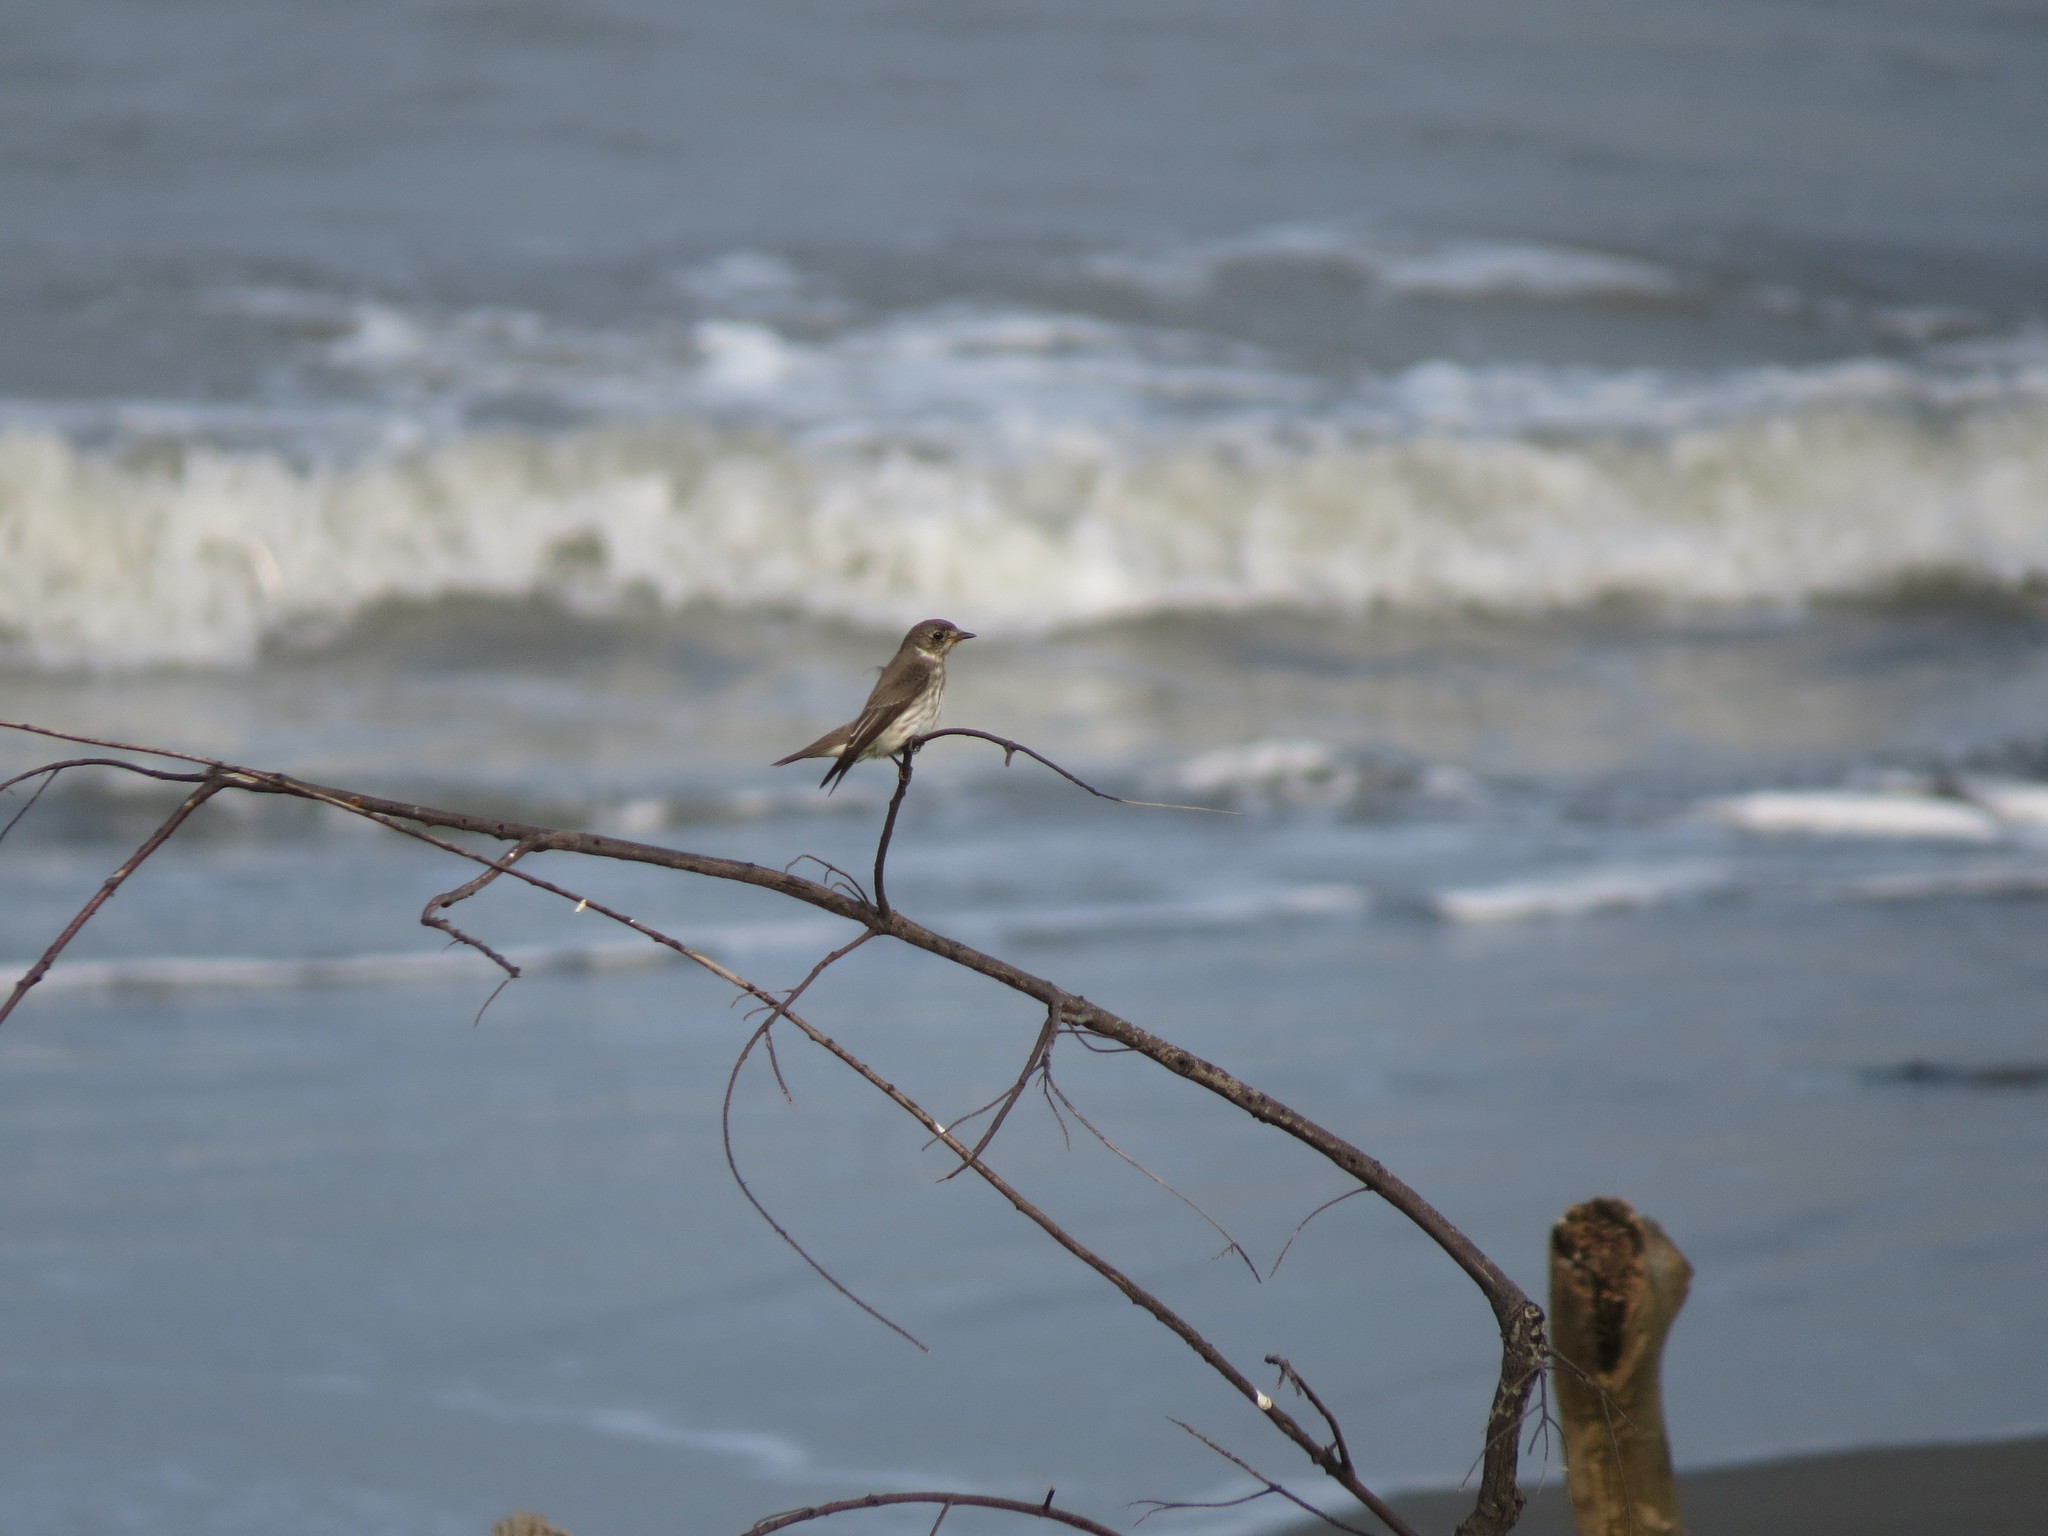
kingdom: Animalia
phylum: Chordata
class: Aves
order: Passeriformes
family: Muscicapidae
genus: Muscicapa
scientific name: Muscicapa griseisticta
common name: Gray-streaked flycatcher
